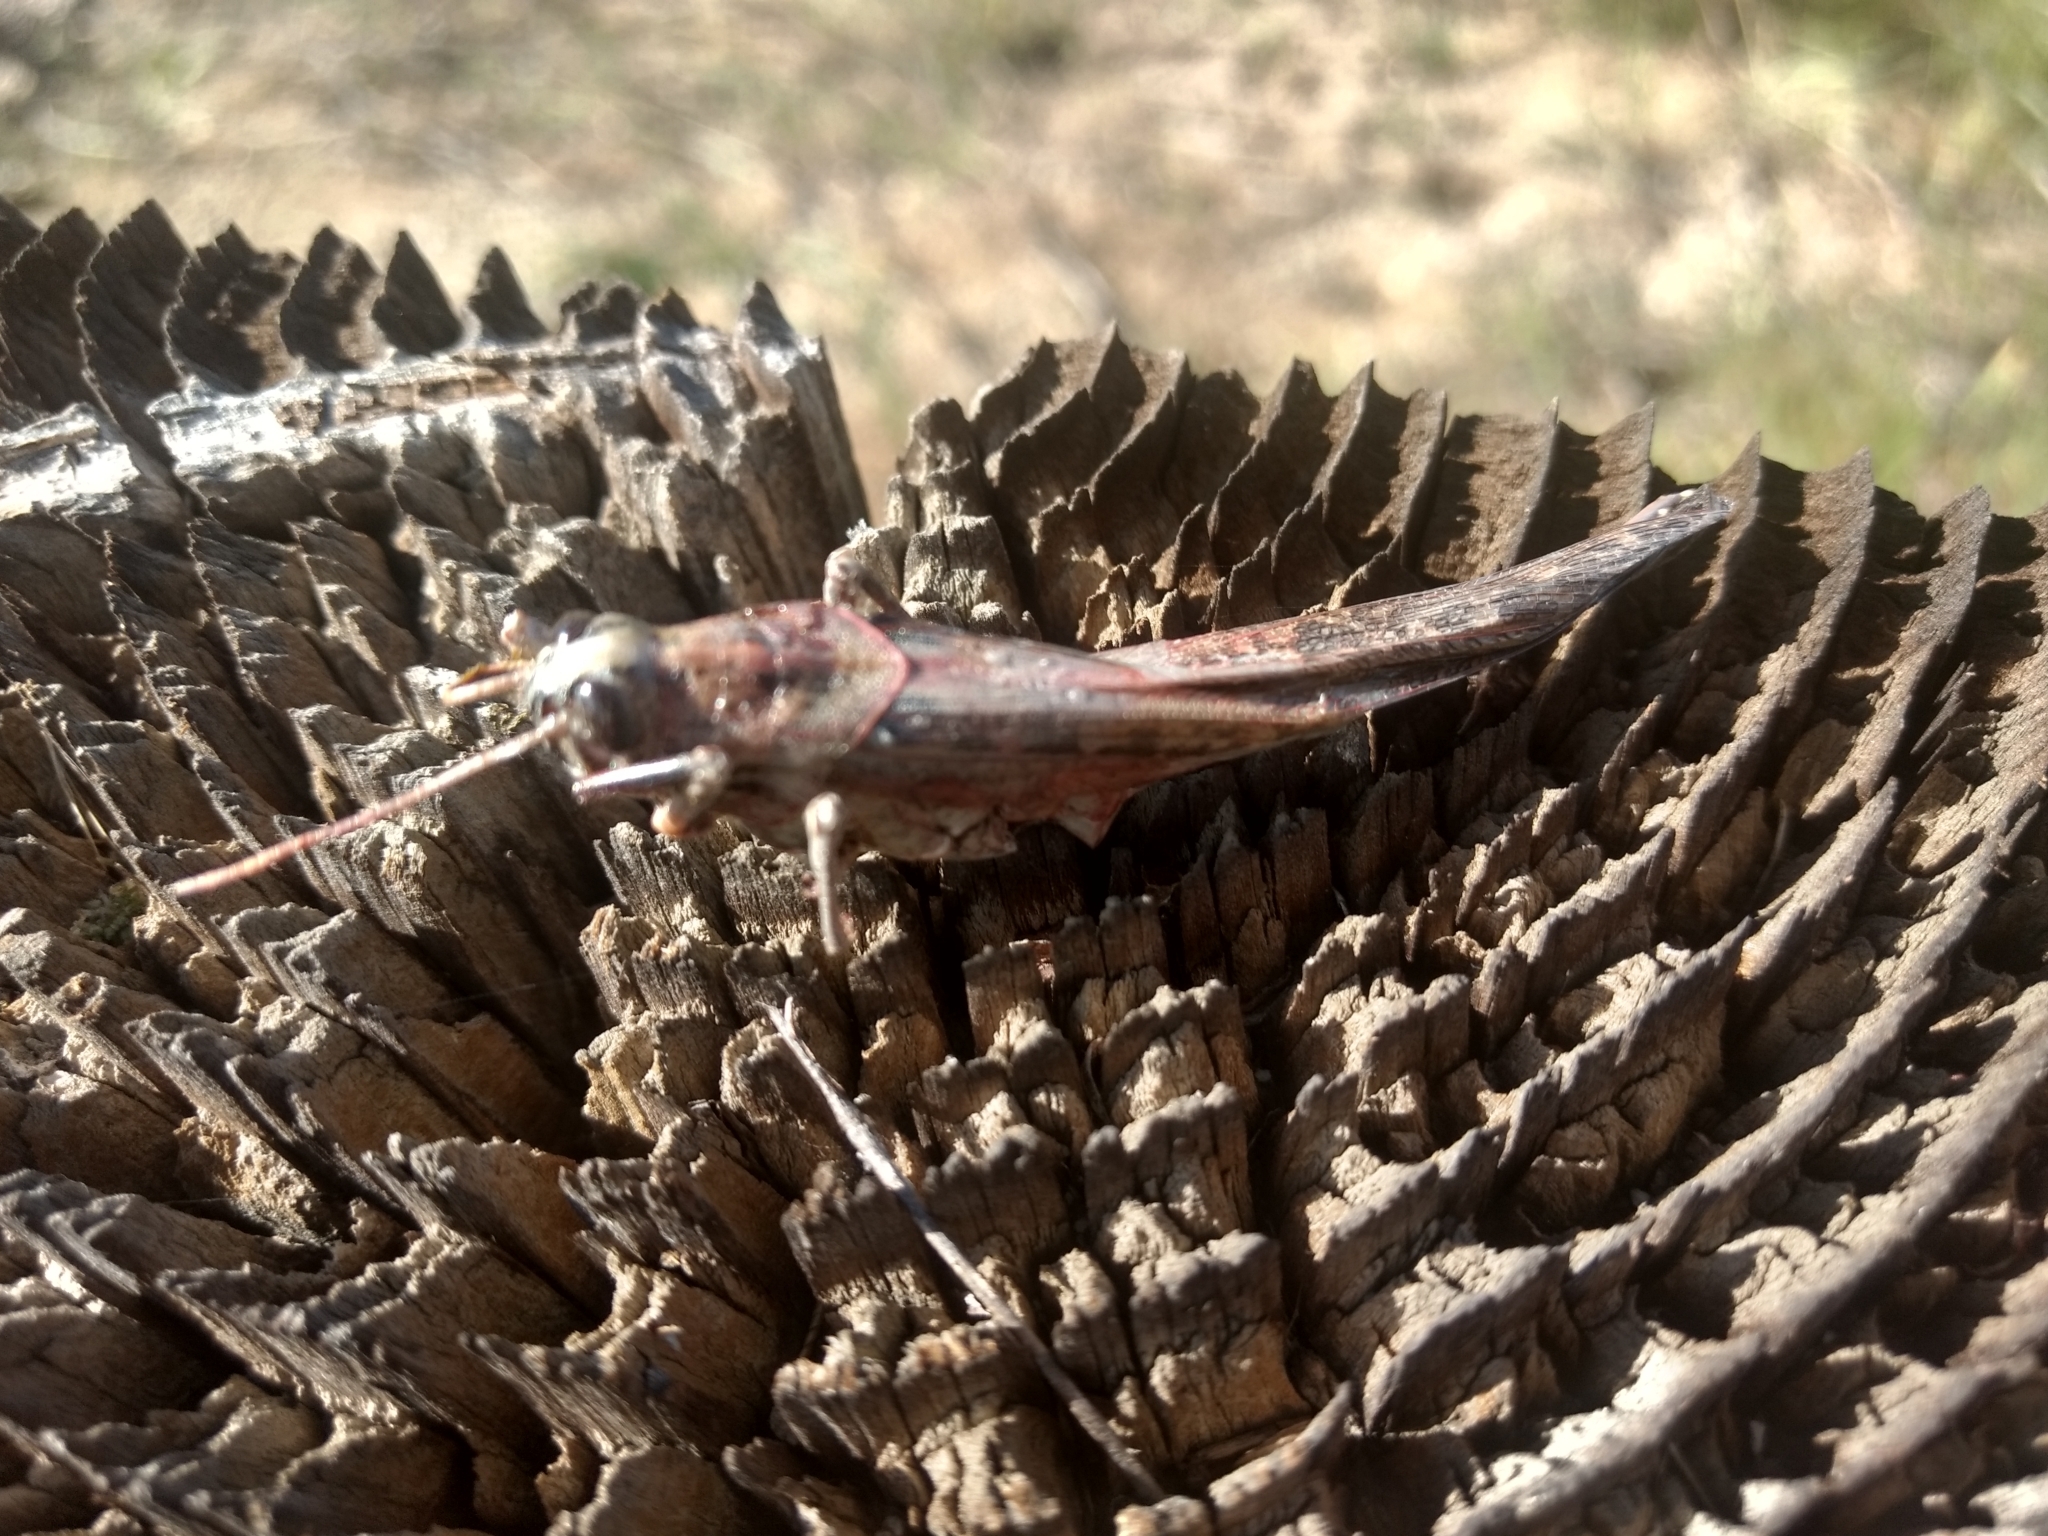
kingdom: Animalia
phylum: Arthropoda
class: Insecta
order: Orthoptera
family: Acrididae
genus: Schistocerca
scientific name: Schistocerca nitens
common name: Vagrant grasshopper
